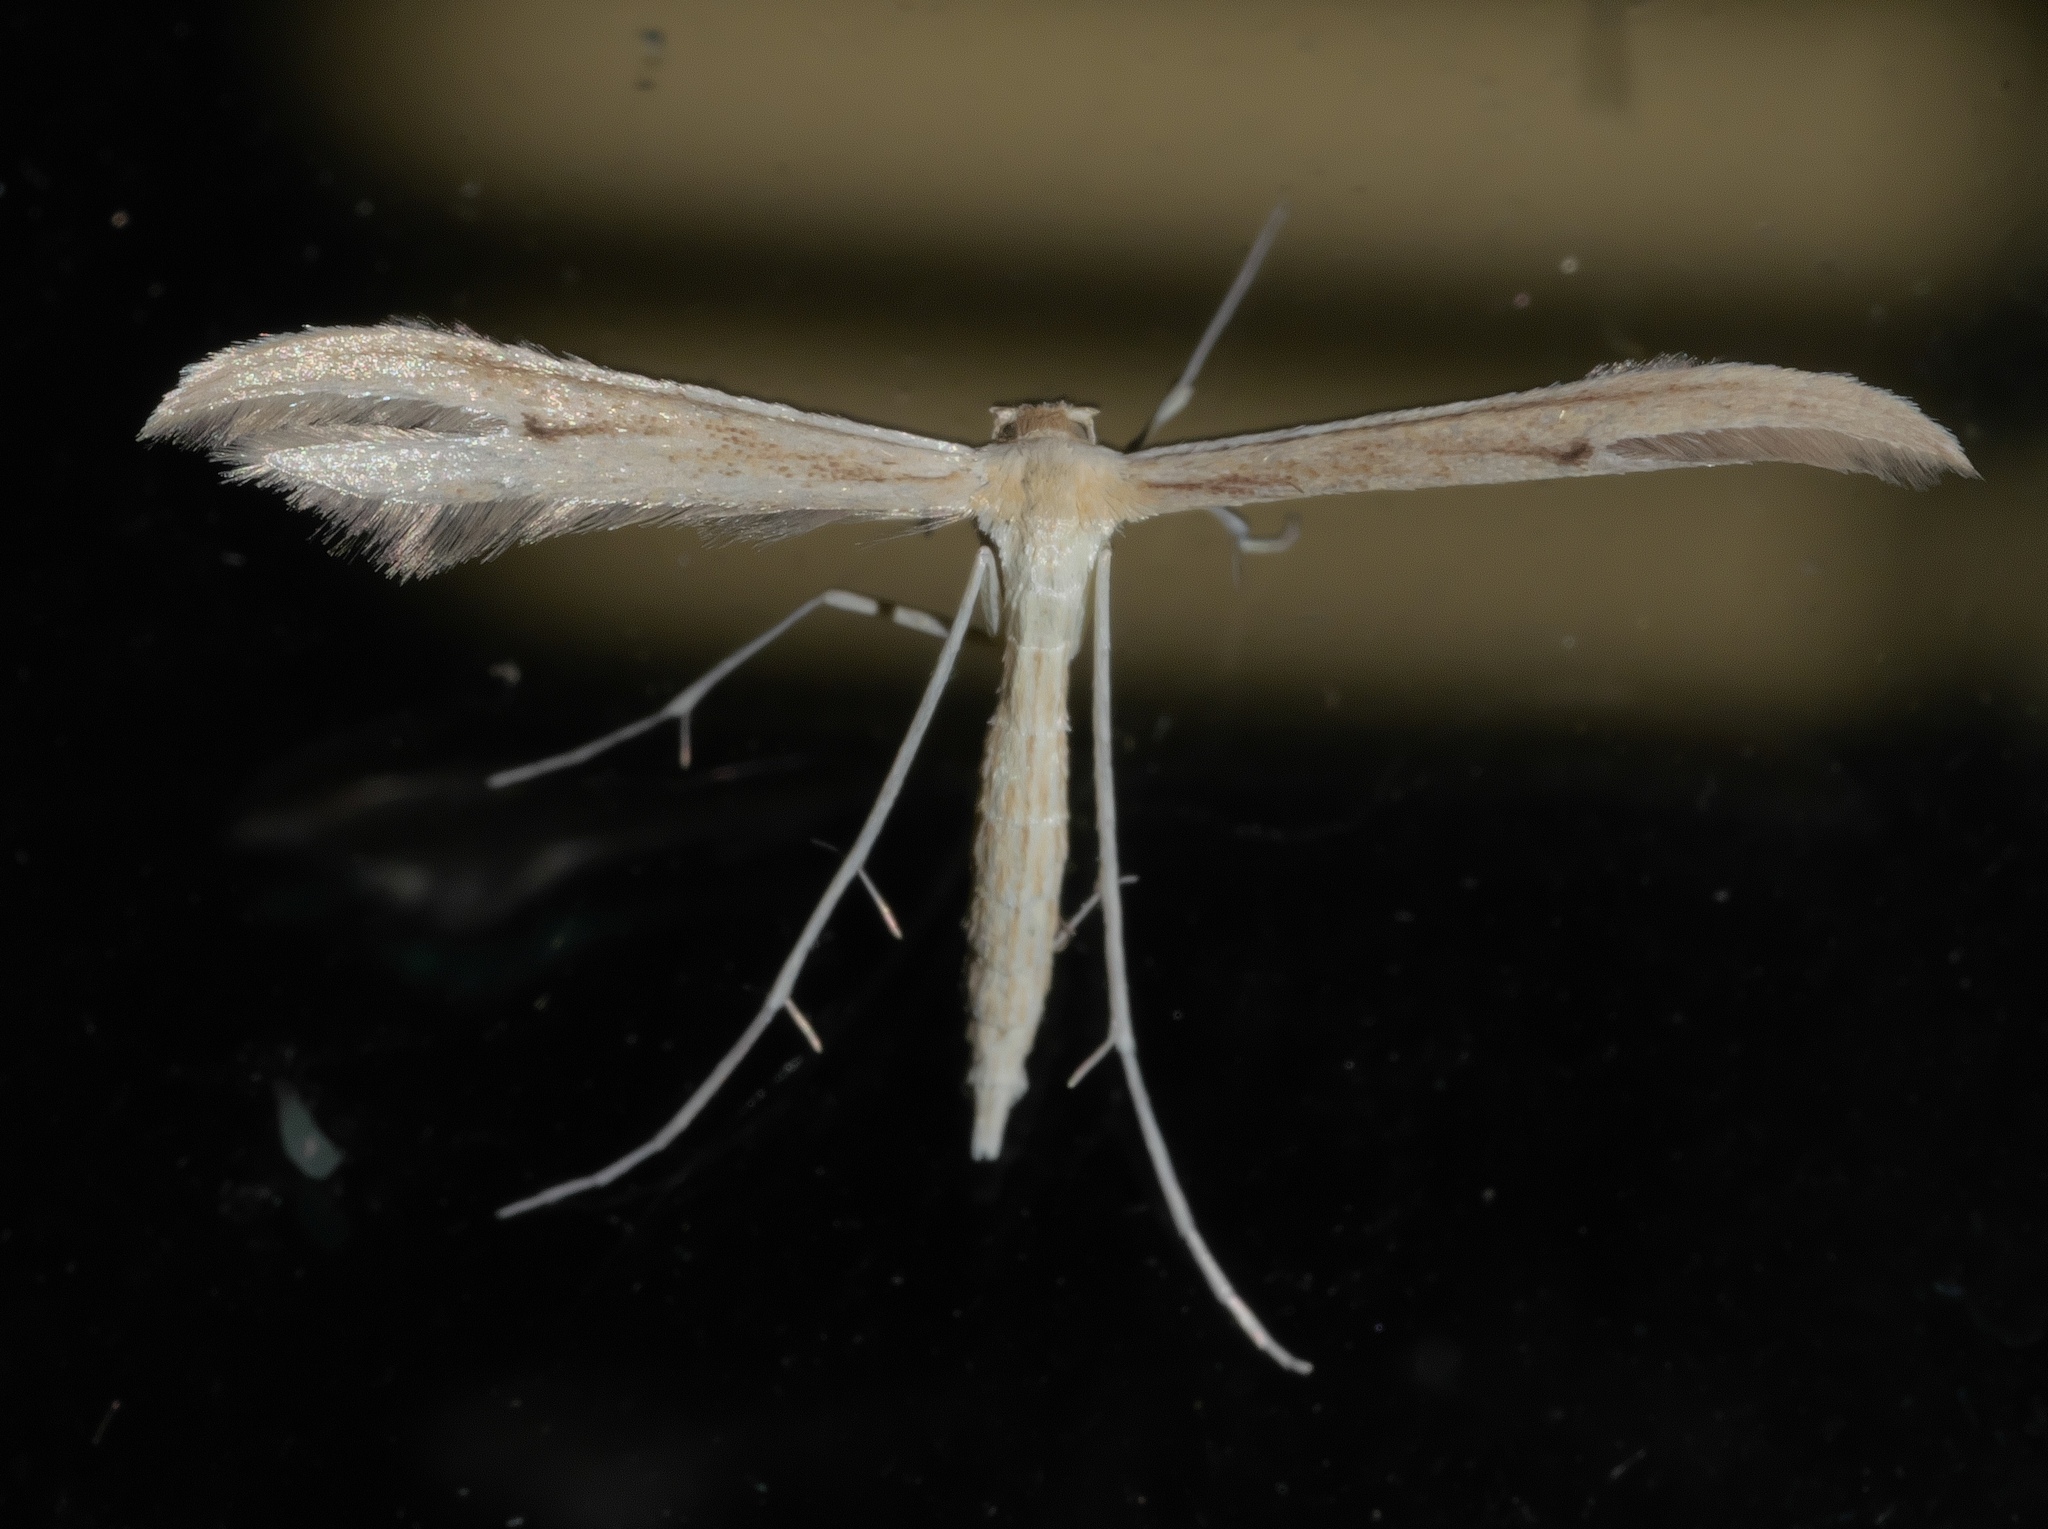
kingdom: Animalia
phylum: Arthropoda
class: Insecta
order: Lepidoptera
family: Pterophoridae
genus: Hellinsia
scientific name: Hellinsia paleaceus
